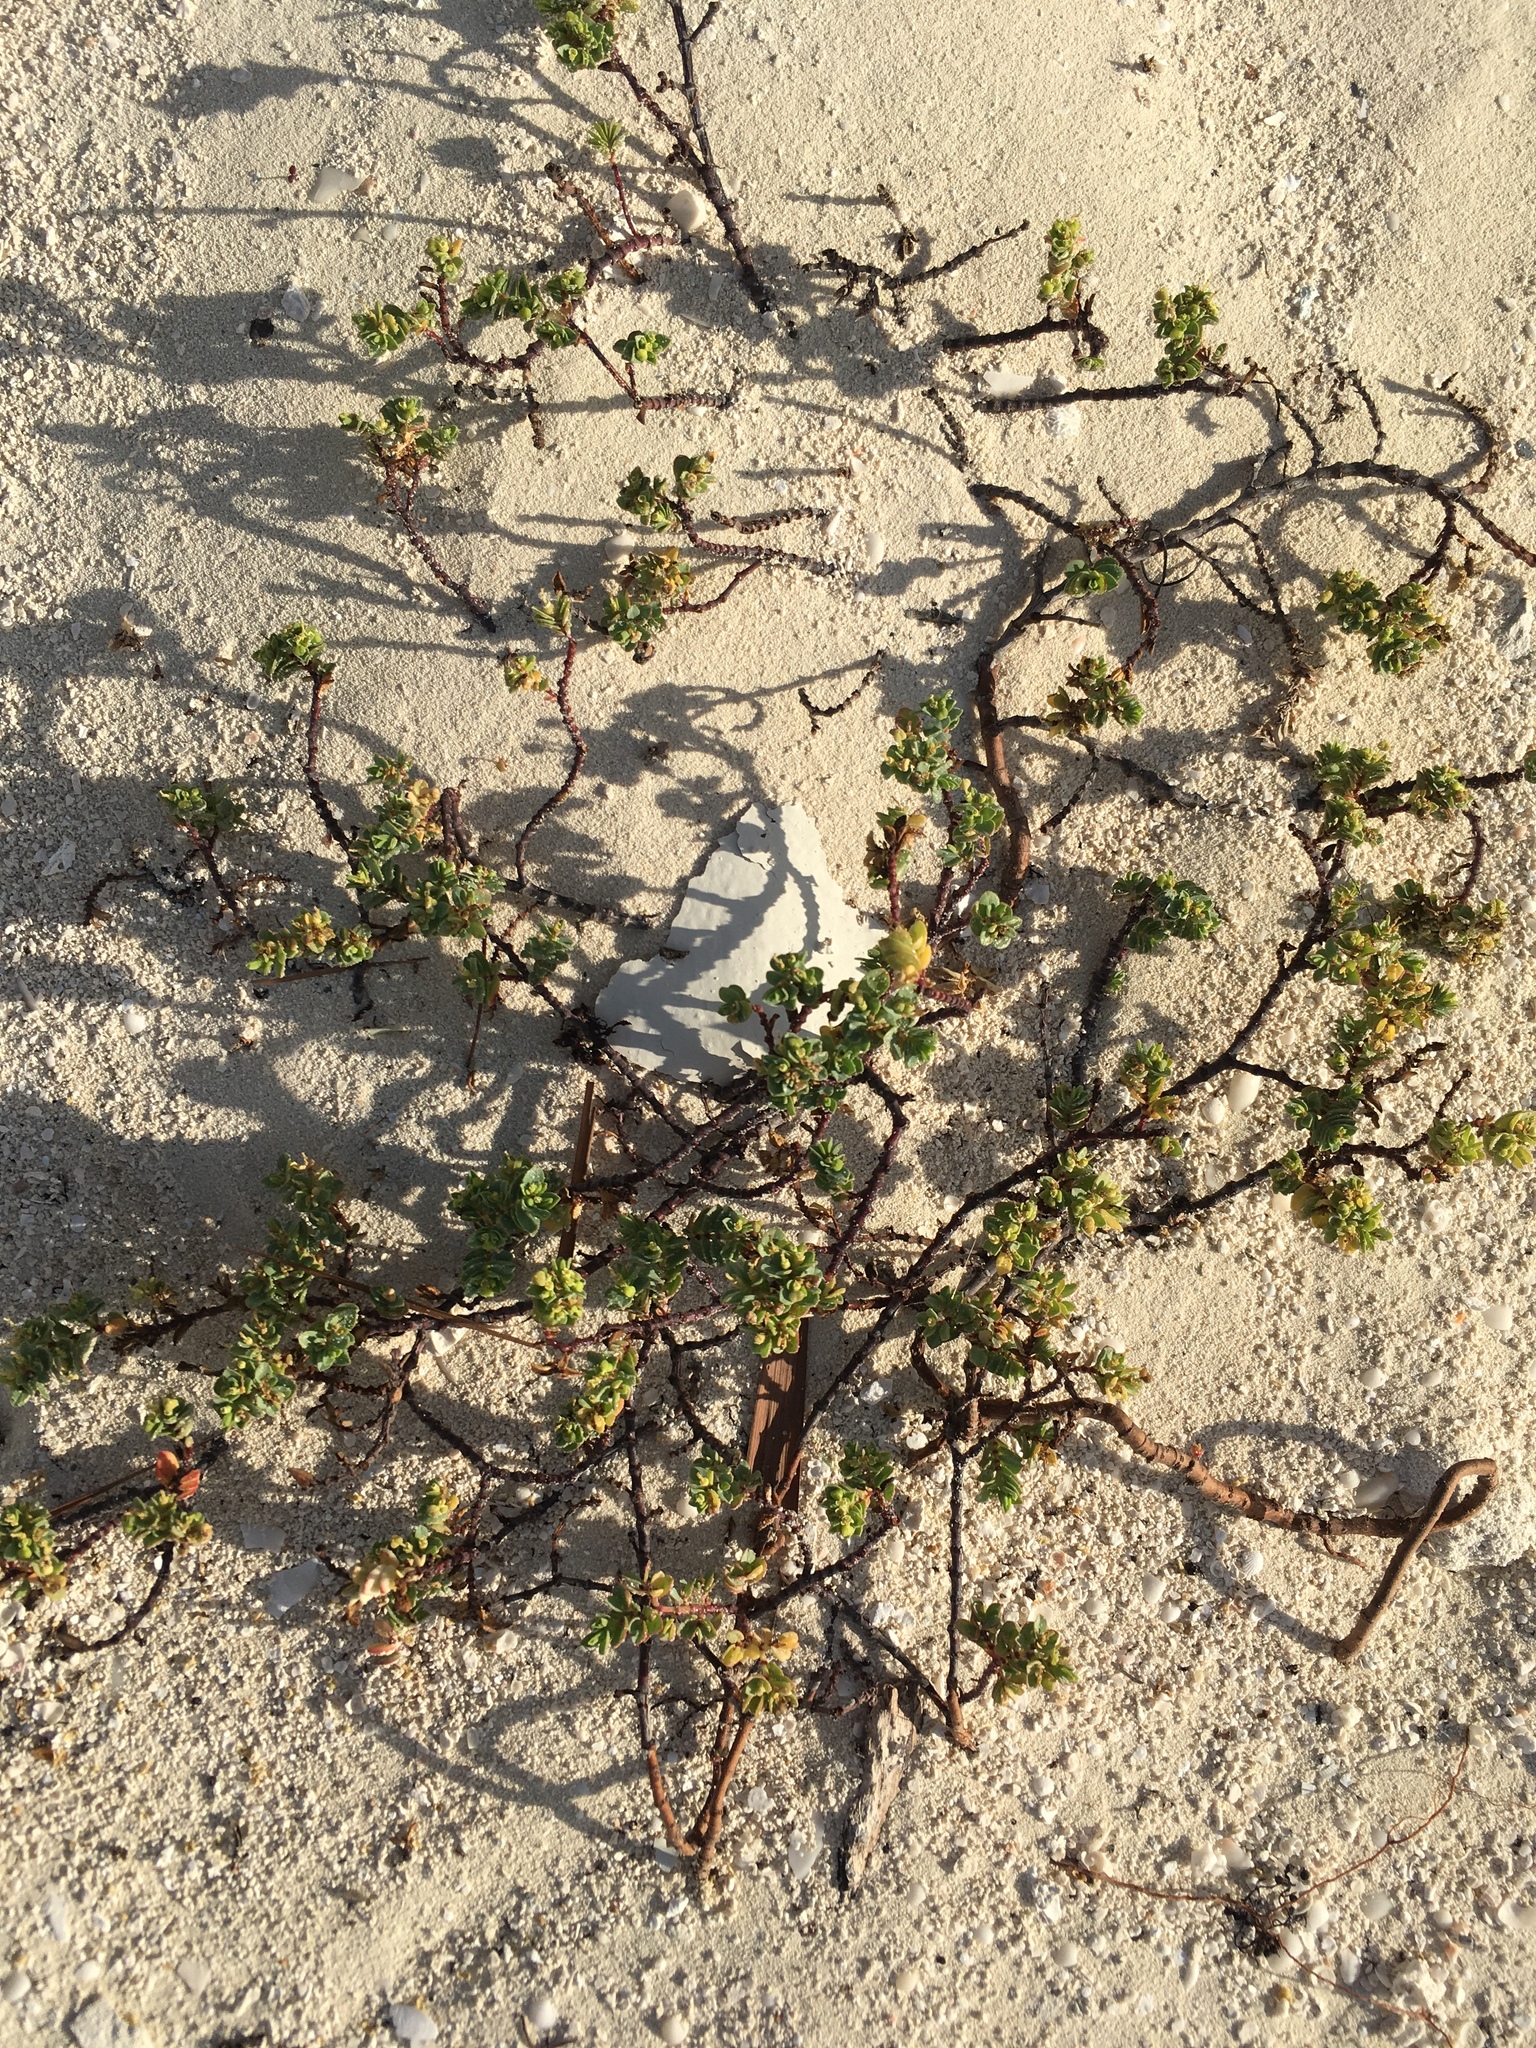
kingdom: Plantae
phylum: Tracheophyta
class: Magnoliopsida
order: Malpighiales
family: Euphorbiaceae
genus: Euphorbia
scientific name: Euphorbia mesembryanthemifolia
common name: Coastal beach sandmat
